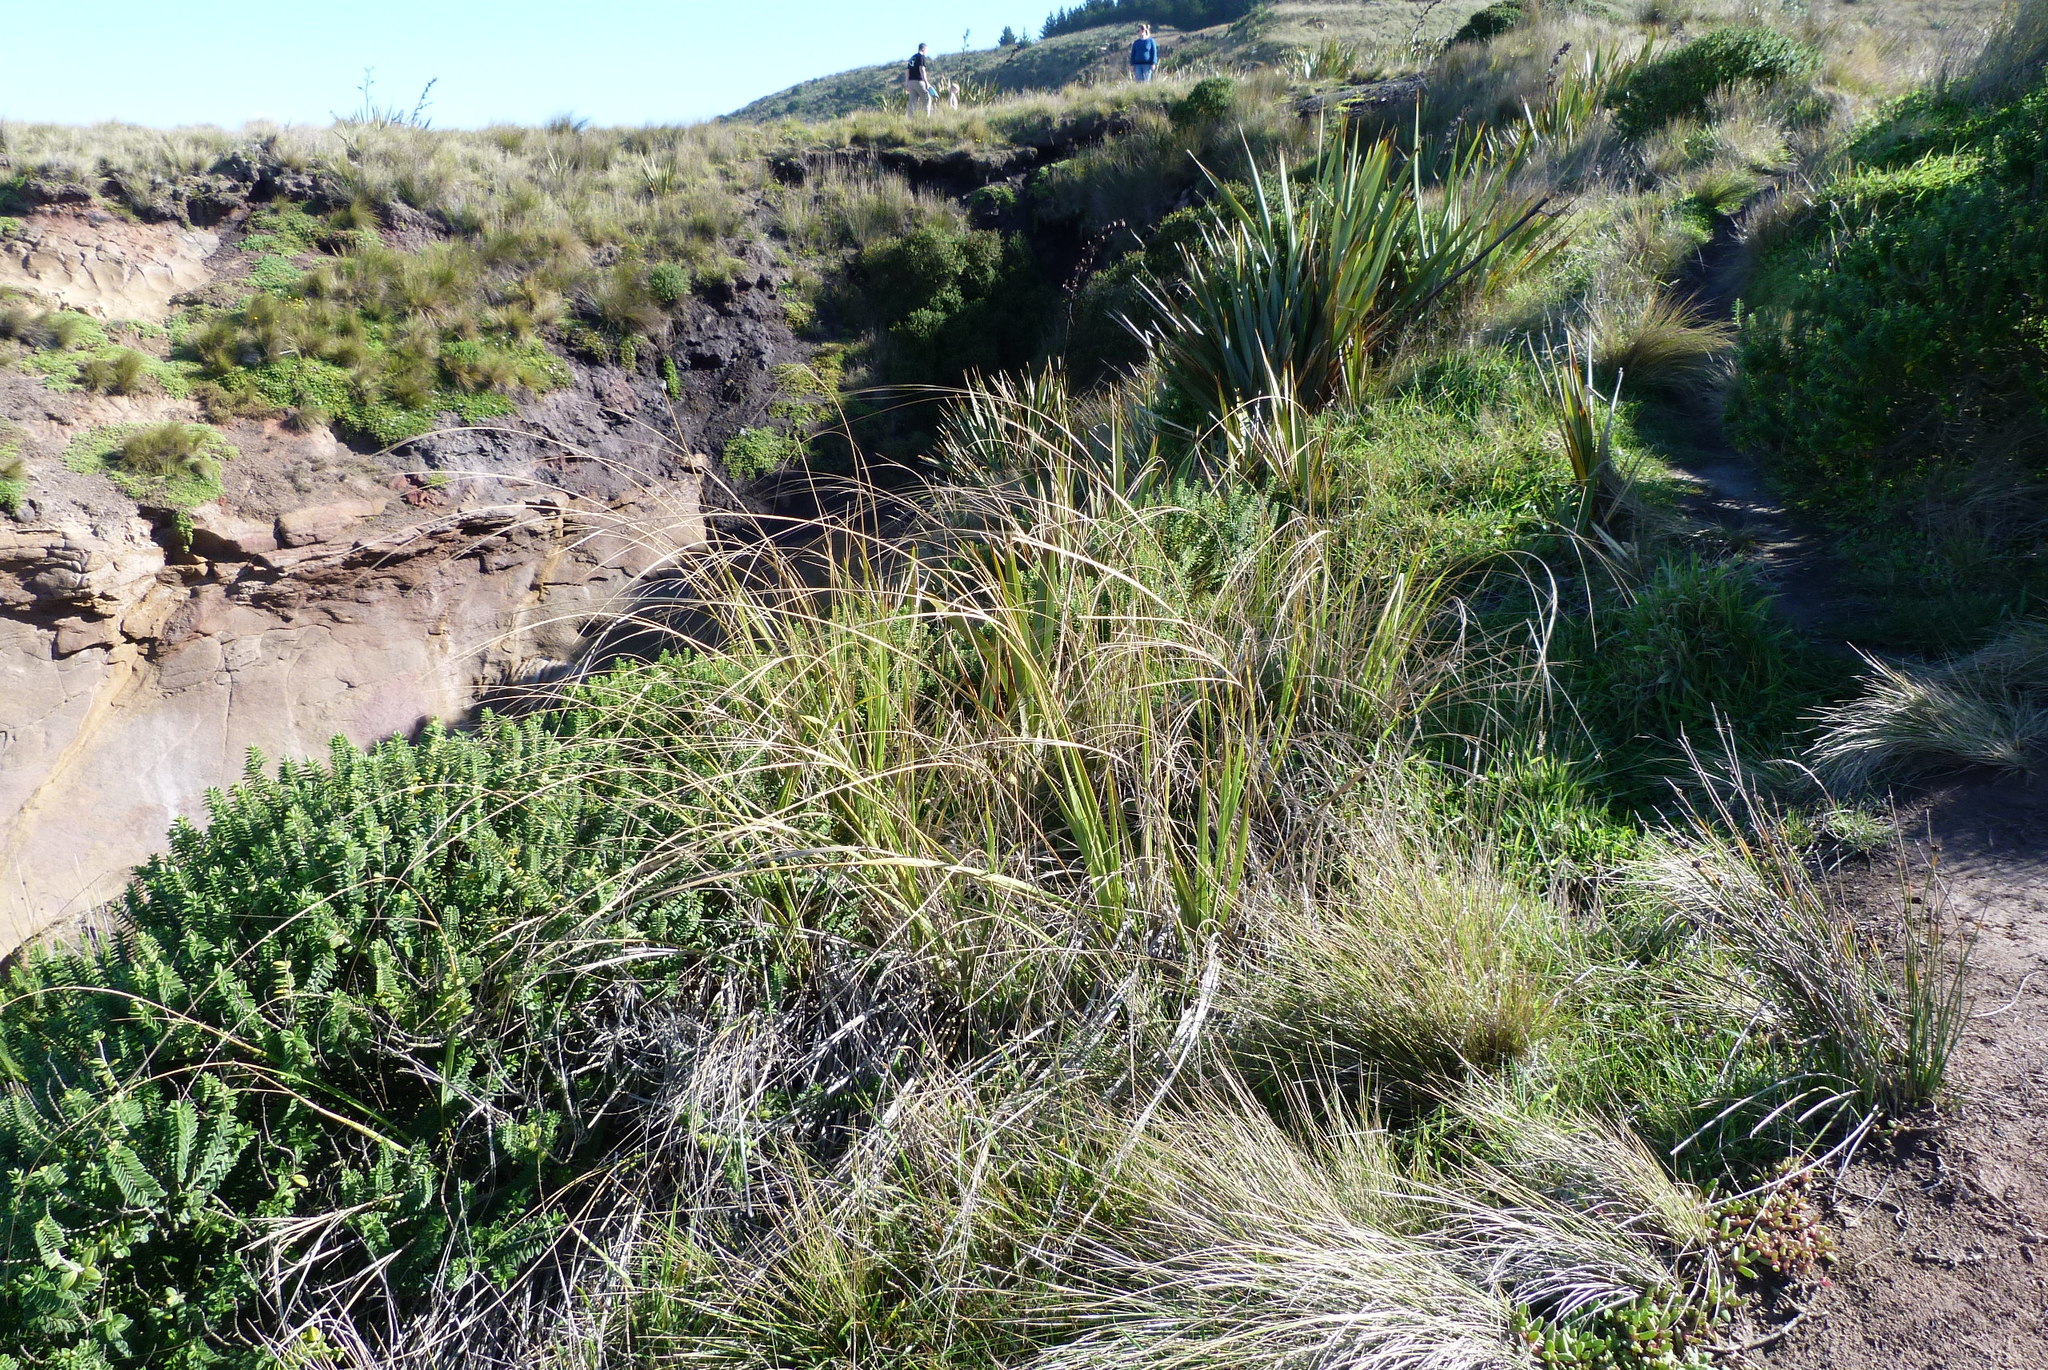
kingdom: Plantae
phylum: Tracheophyta
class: Liliopsida
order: Poales
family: Poaceae
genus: Austroderia
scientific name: Austroderia richardii
